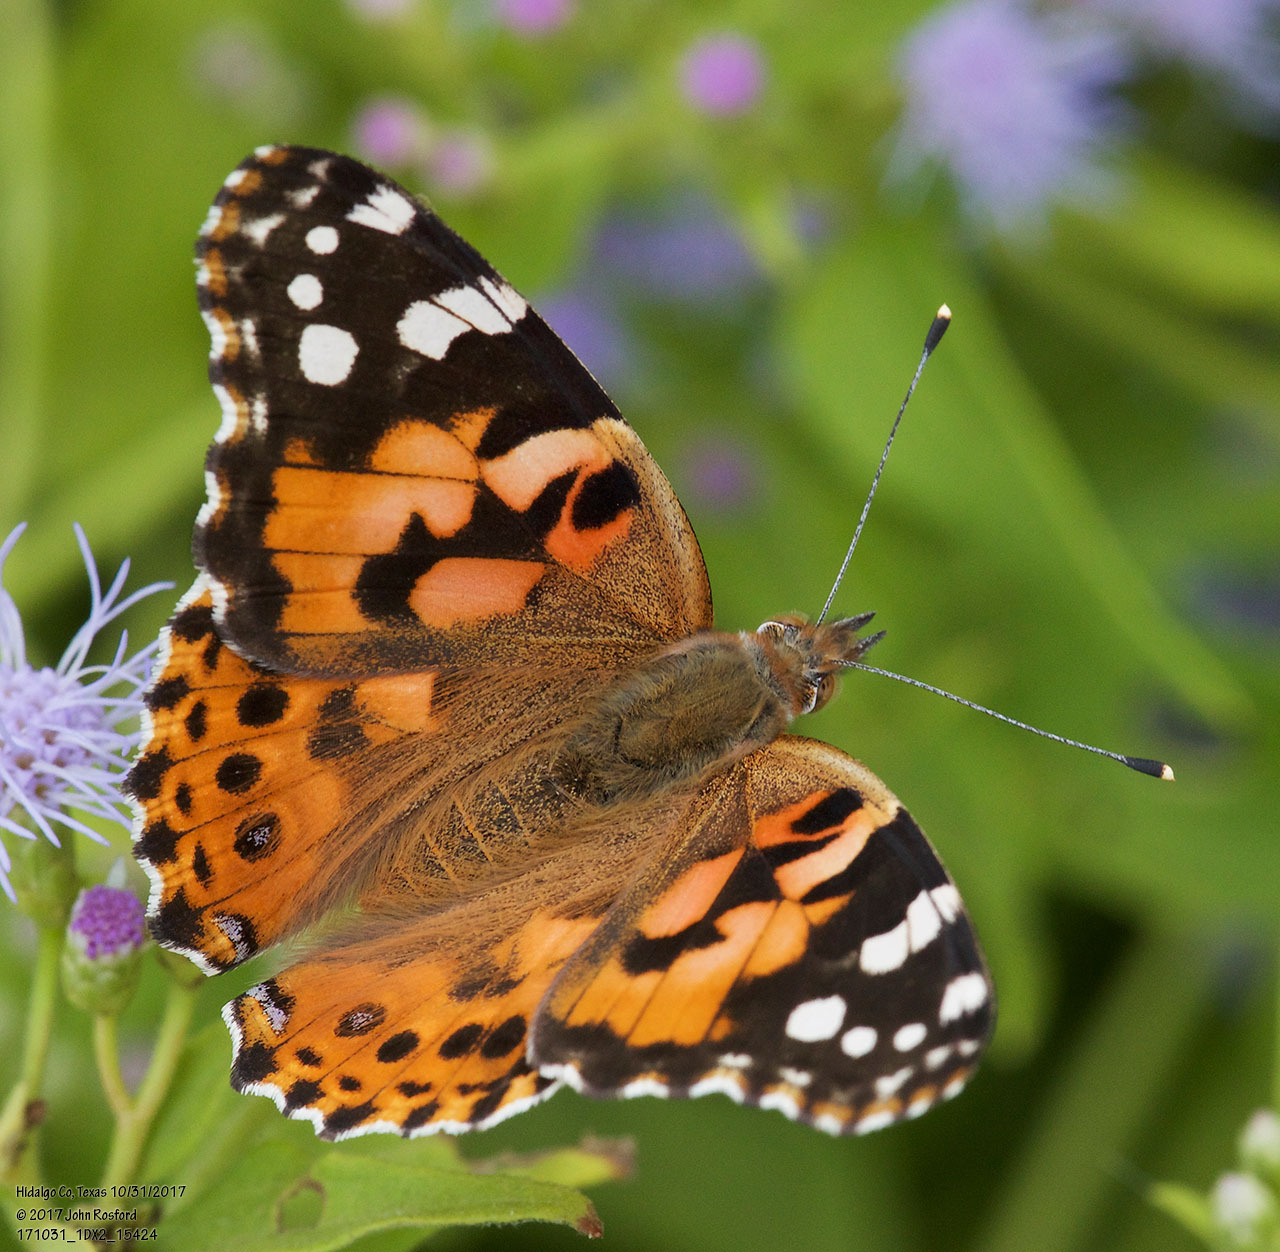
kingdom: Animalia
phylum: Arthropoda
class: Insecta
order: Lepidoptera
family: Nymphalidae
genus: Vanessa
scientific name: Vanessa cardui
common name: Painted lady
